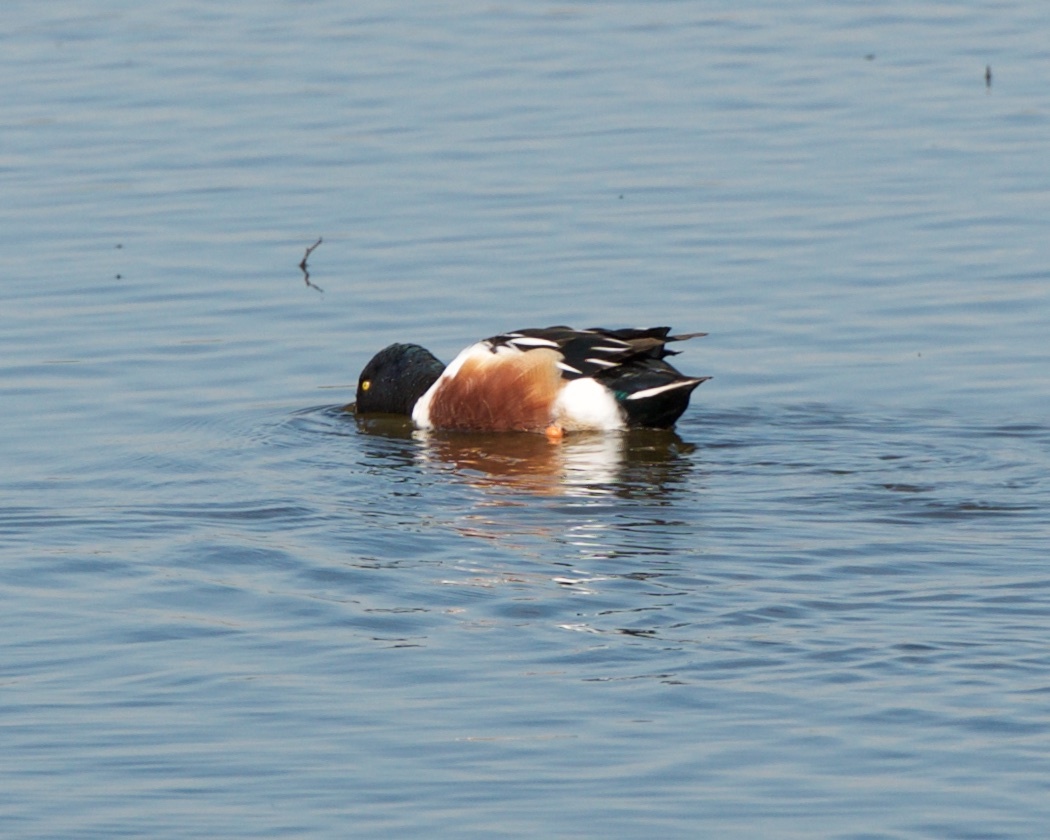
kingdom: Animalia
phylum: Chordata
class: Aves
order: Anseriformes
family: Anatidae
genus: Spatula
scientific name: Spatula clypeata
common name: Northern shoveler
